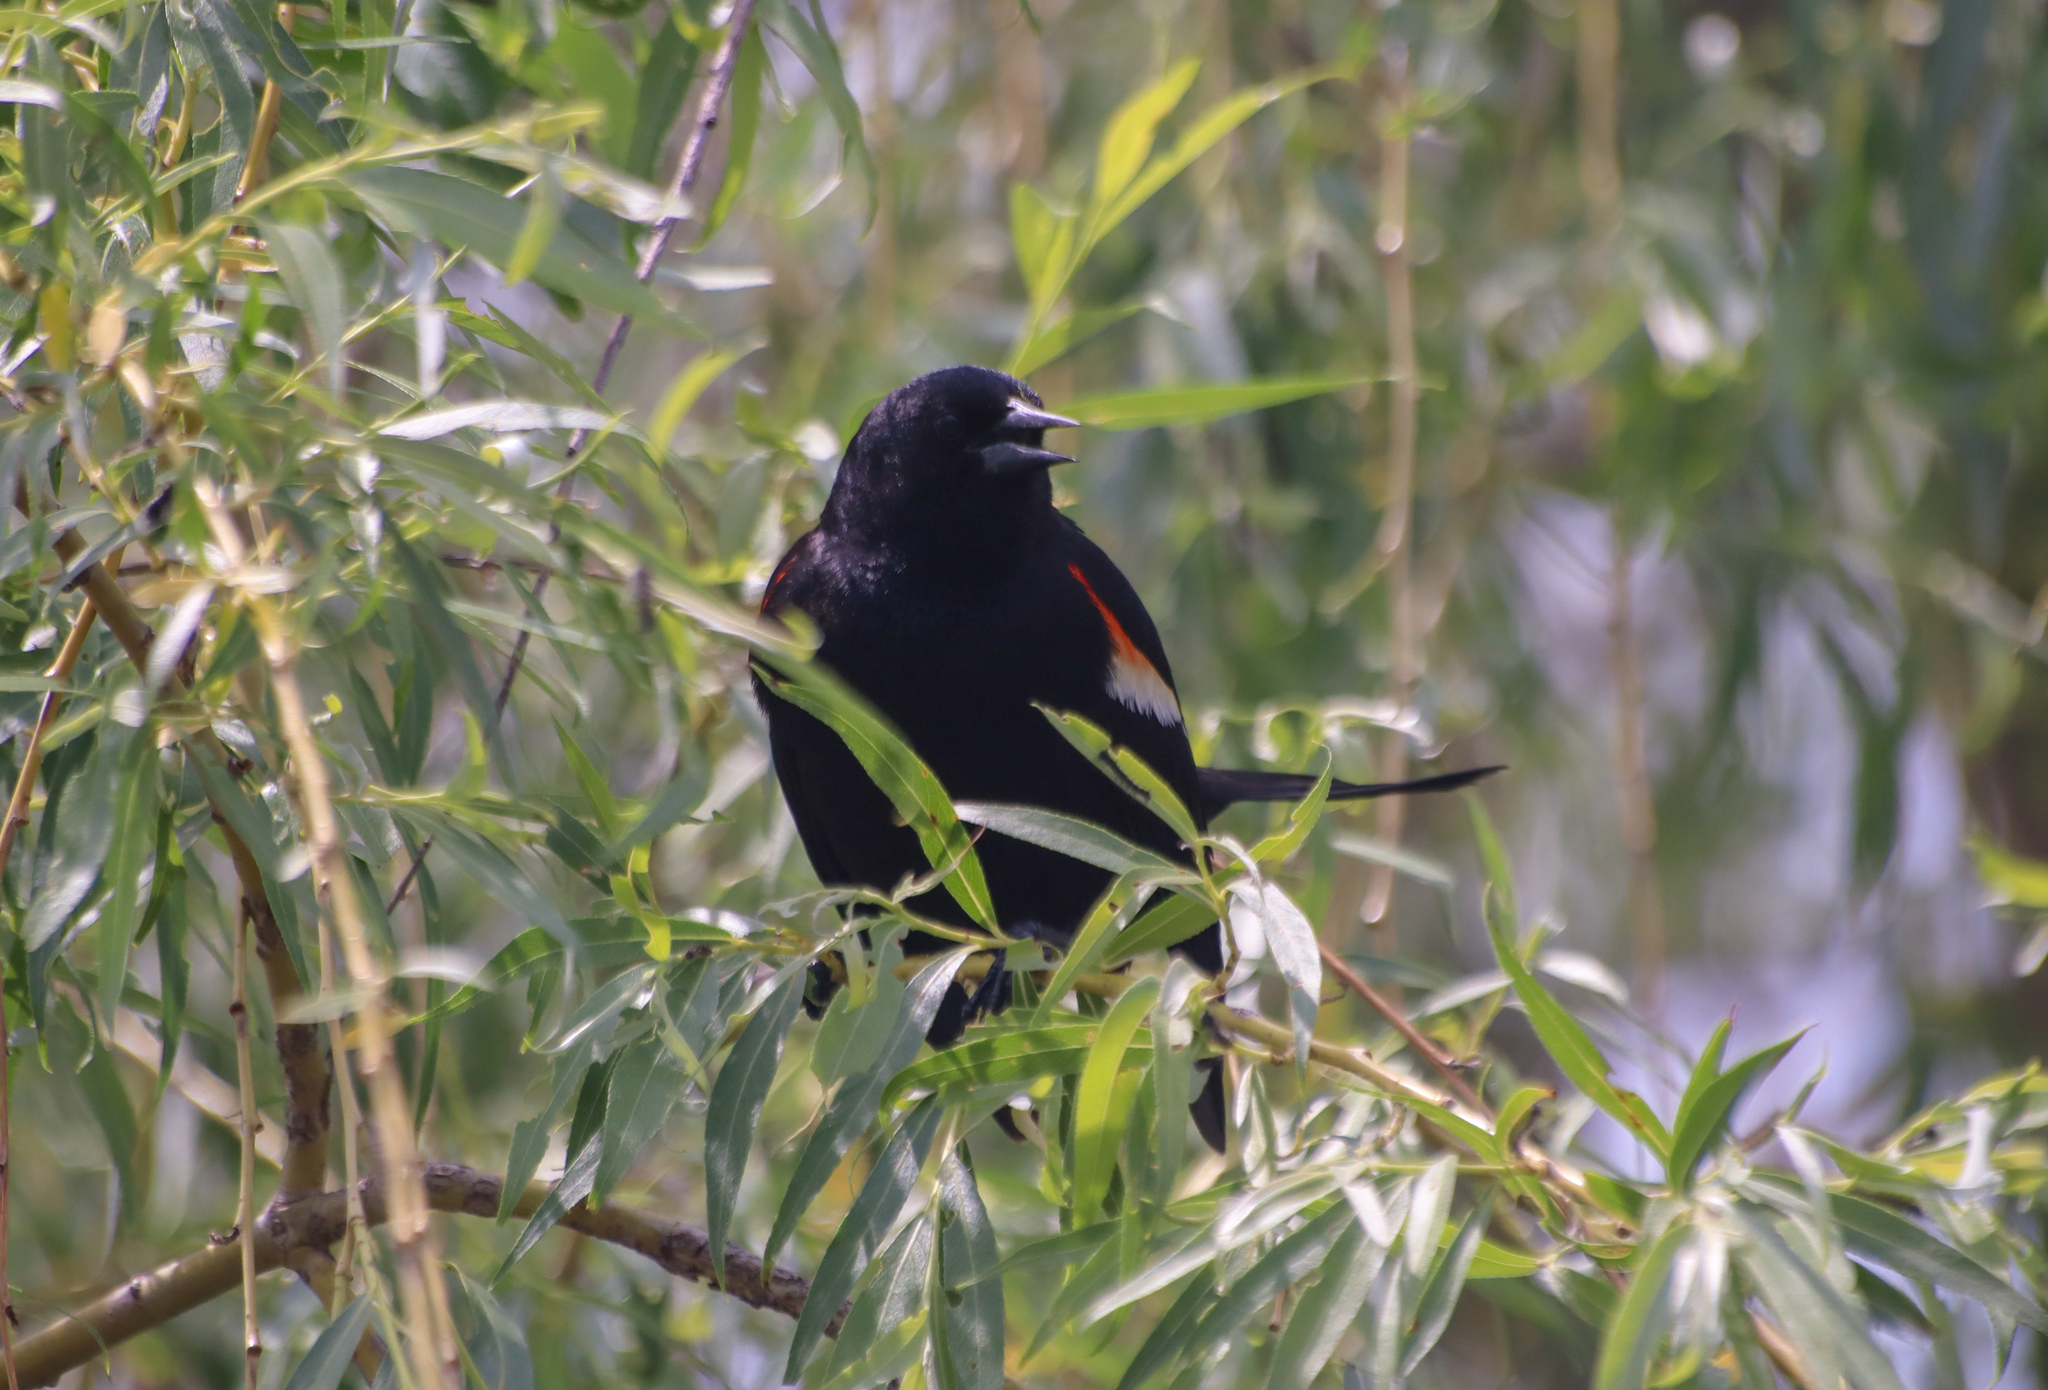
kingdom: Animalia
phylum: Chordata
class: Aves
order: Passeriformes
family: Icteridae
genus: Agelaius
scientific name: Agelaius phoeniceus
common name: Red-winged blackbird
